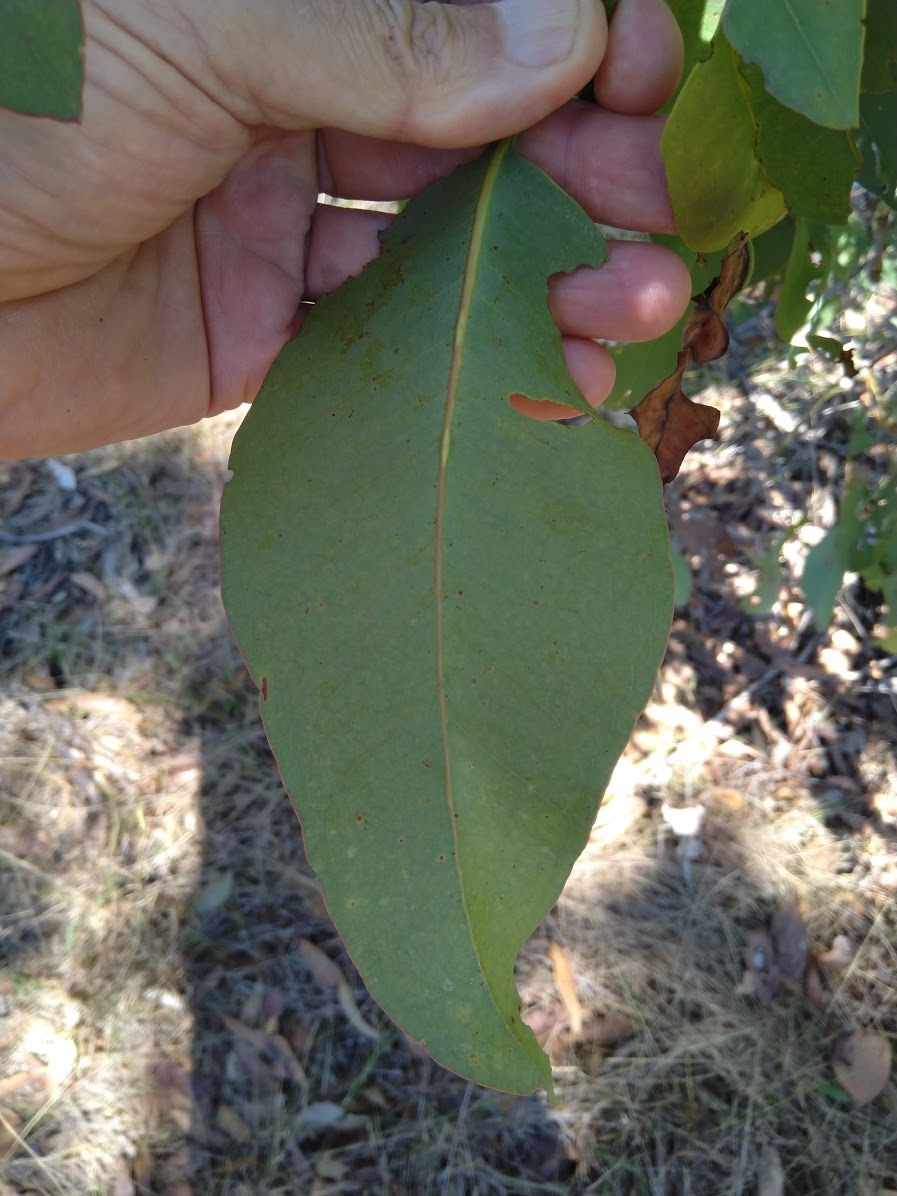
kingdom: Plantae
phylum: Tracheophyta
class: Magnoliopsida
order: Myrtales
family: Myrtaceae
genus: Eucalyptus
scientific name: Eucalyptus fibrosa
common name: Red ironbark
